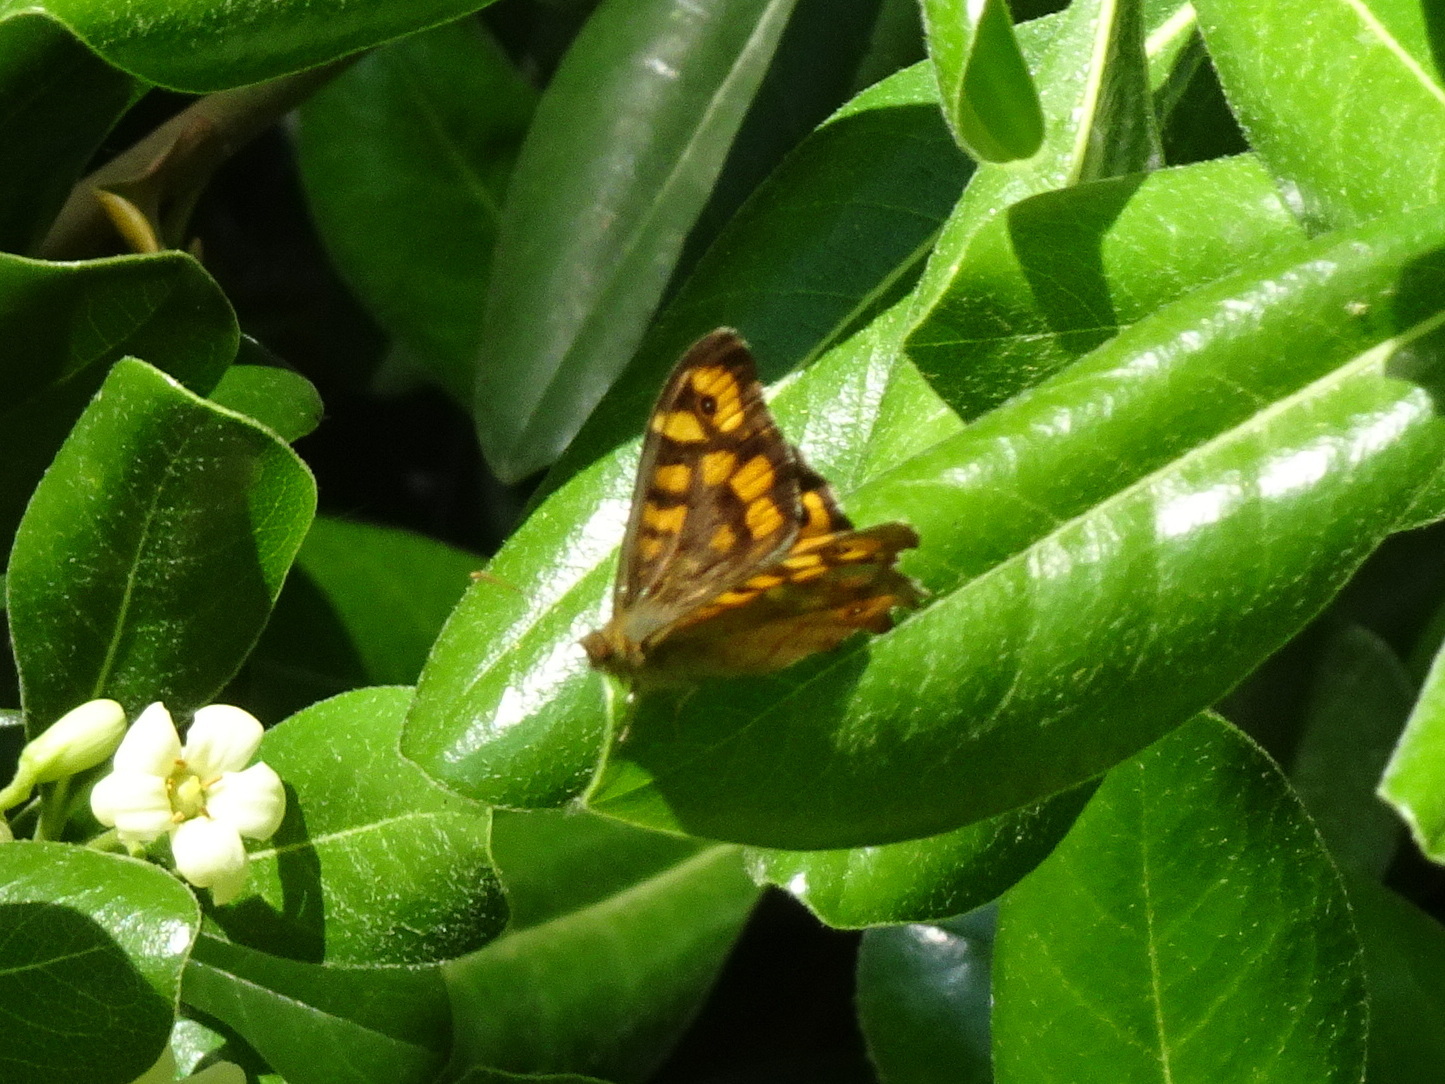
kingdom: Animalia
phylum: Arthropoda
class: Insecta
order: Lepidoptera
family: Nymphalidae
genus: Pararge
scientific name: Pararge aegeria
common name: Speckled wood
